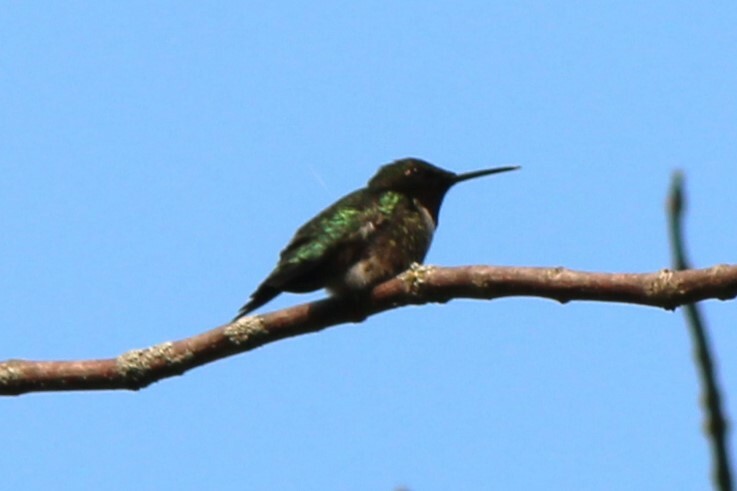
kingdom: Animalia
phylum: Chordata
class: Aves
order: Apodiformes
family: Trochilidae
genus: Archilochus
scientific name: Archilochus colubris
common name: Ruby-throated hummingbird
